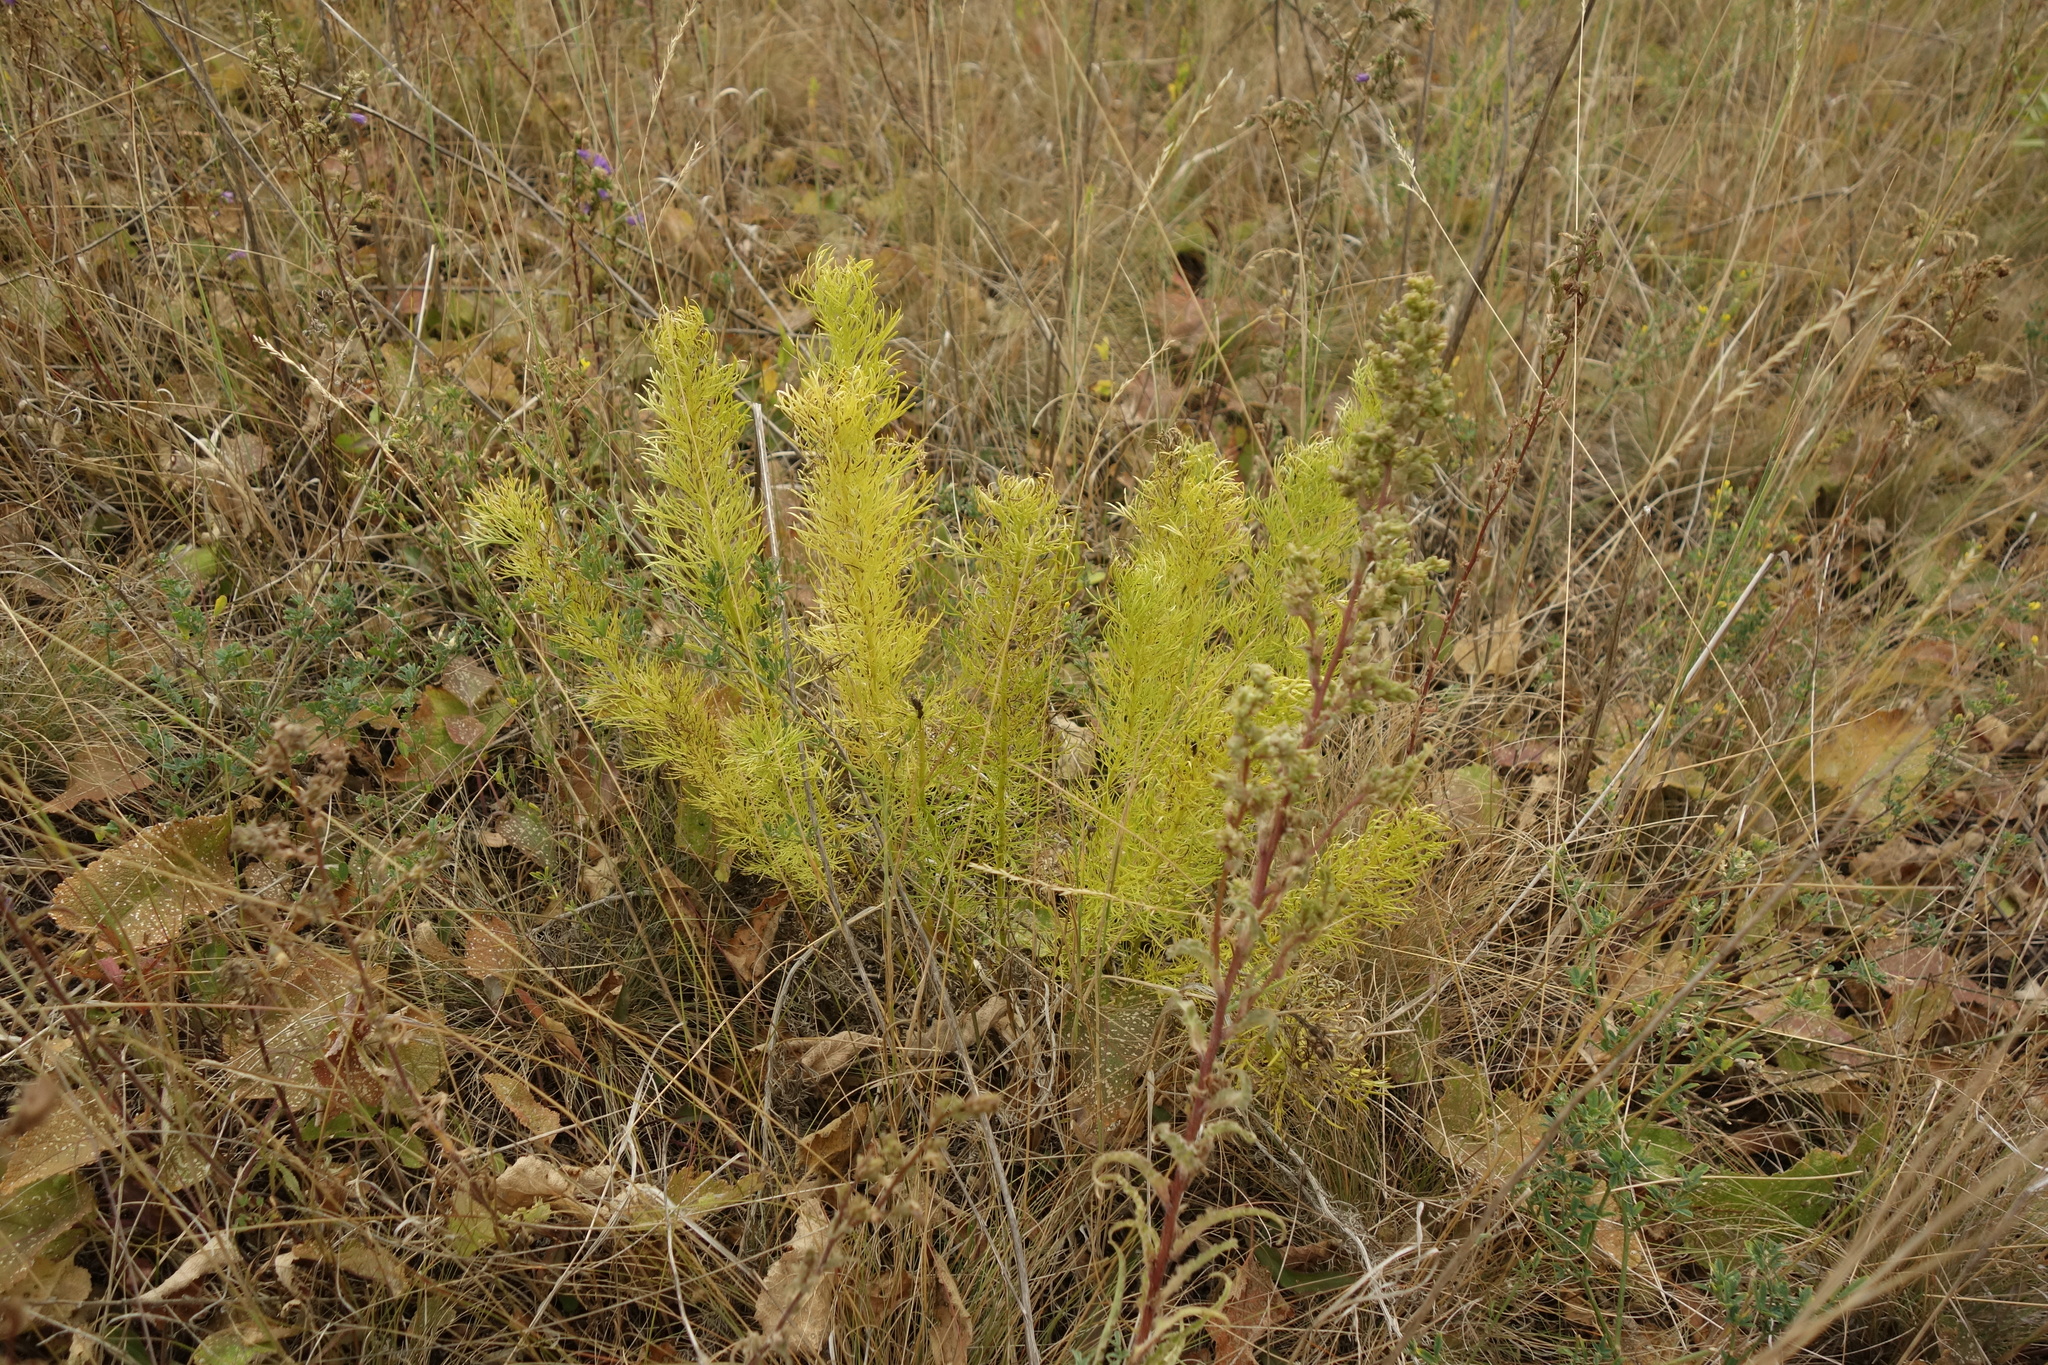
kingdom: Plantae
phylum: Tracheophyta
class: Magnoliopsida
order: Ranunculales
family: Ranunculaceae
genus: Adonis
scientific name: Adonis vernalis
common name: Yellow pheasants-eye
